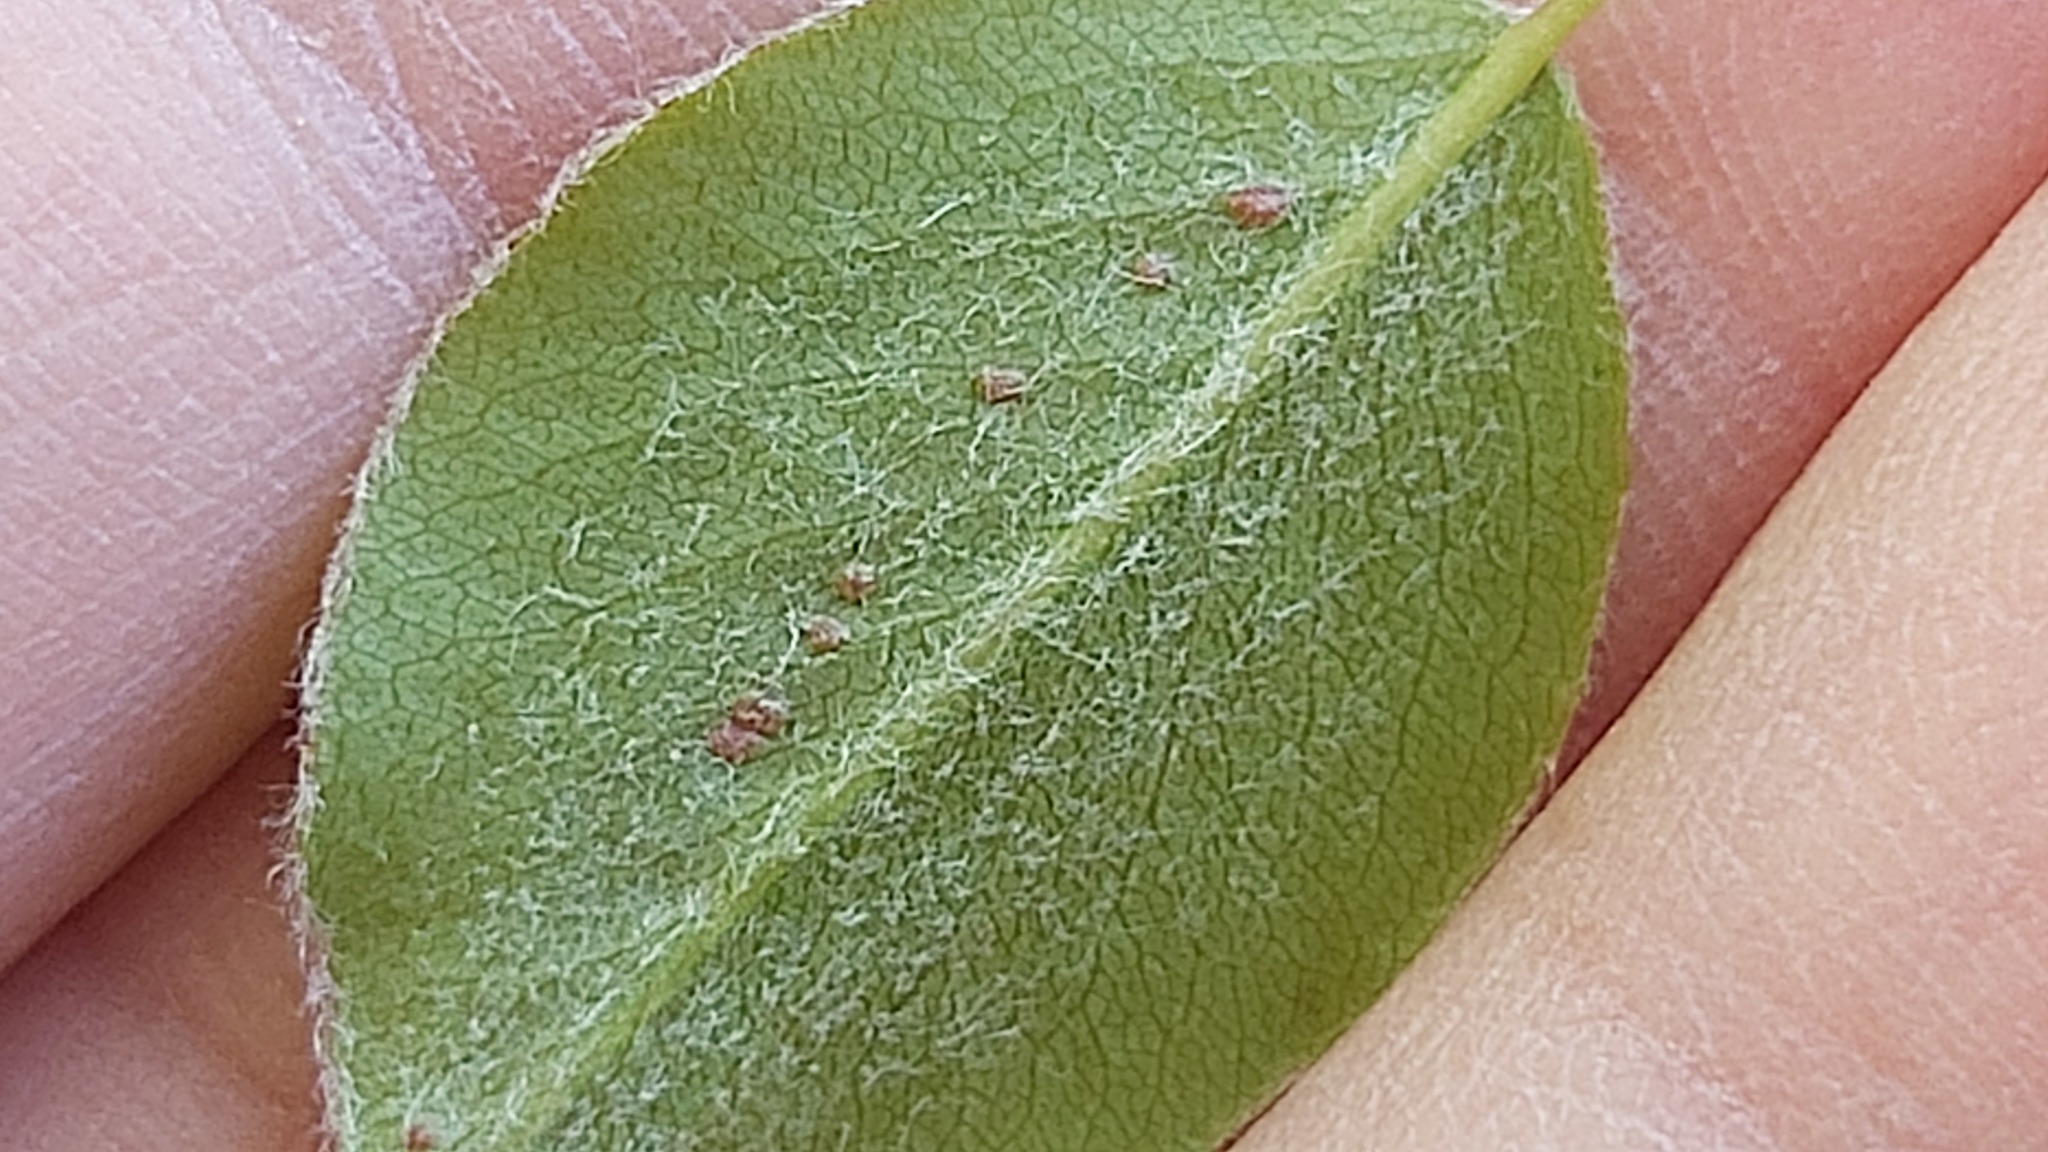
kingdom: Animalia
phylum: Arthropoda
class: Arachnida
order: Trombidiformes
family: Eriophyidae
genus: Eriophyes
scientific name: Eriophyes pyri
